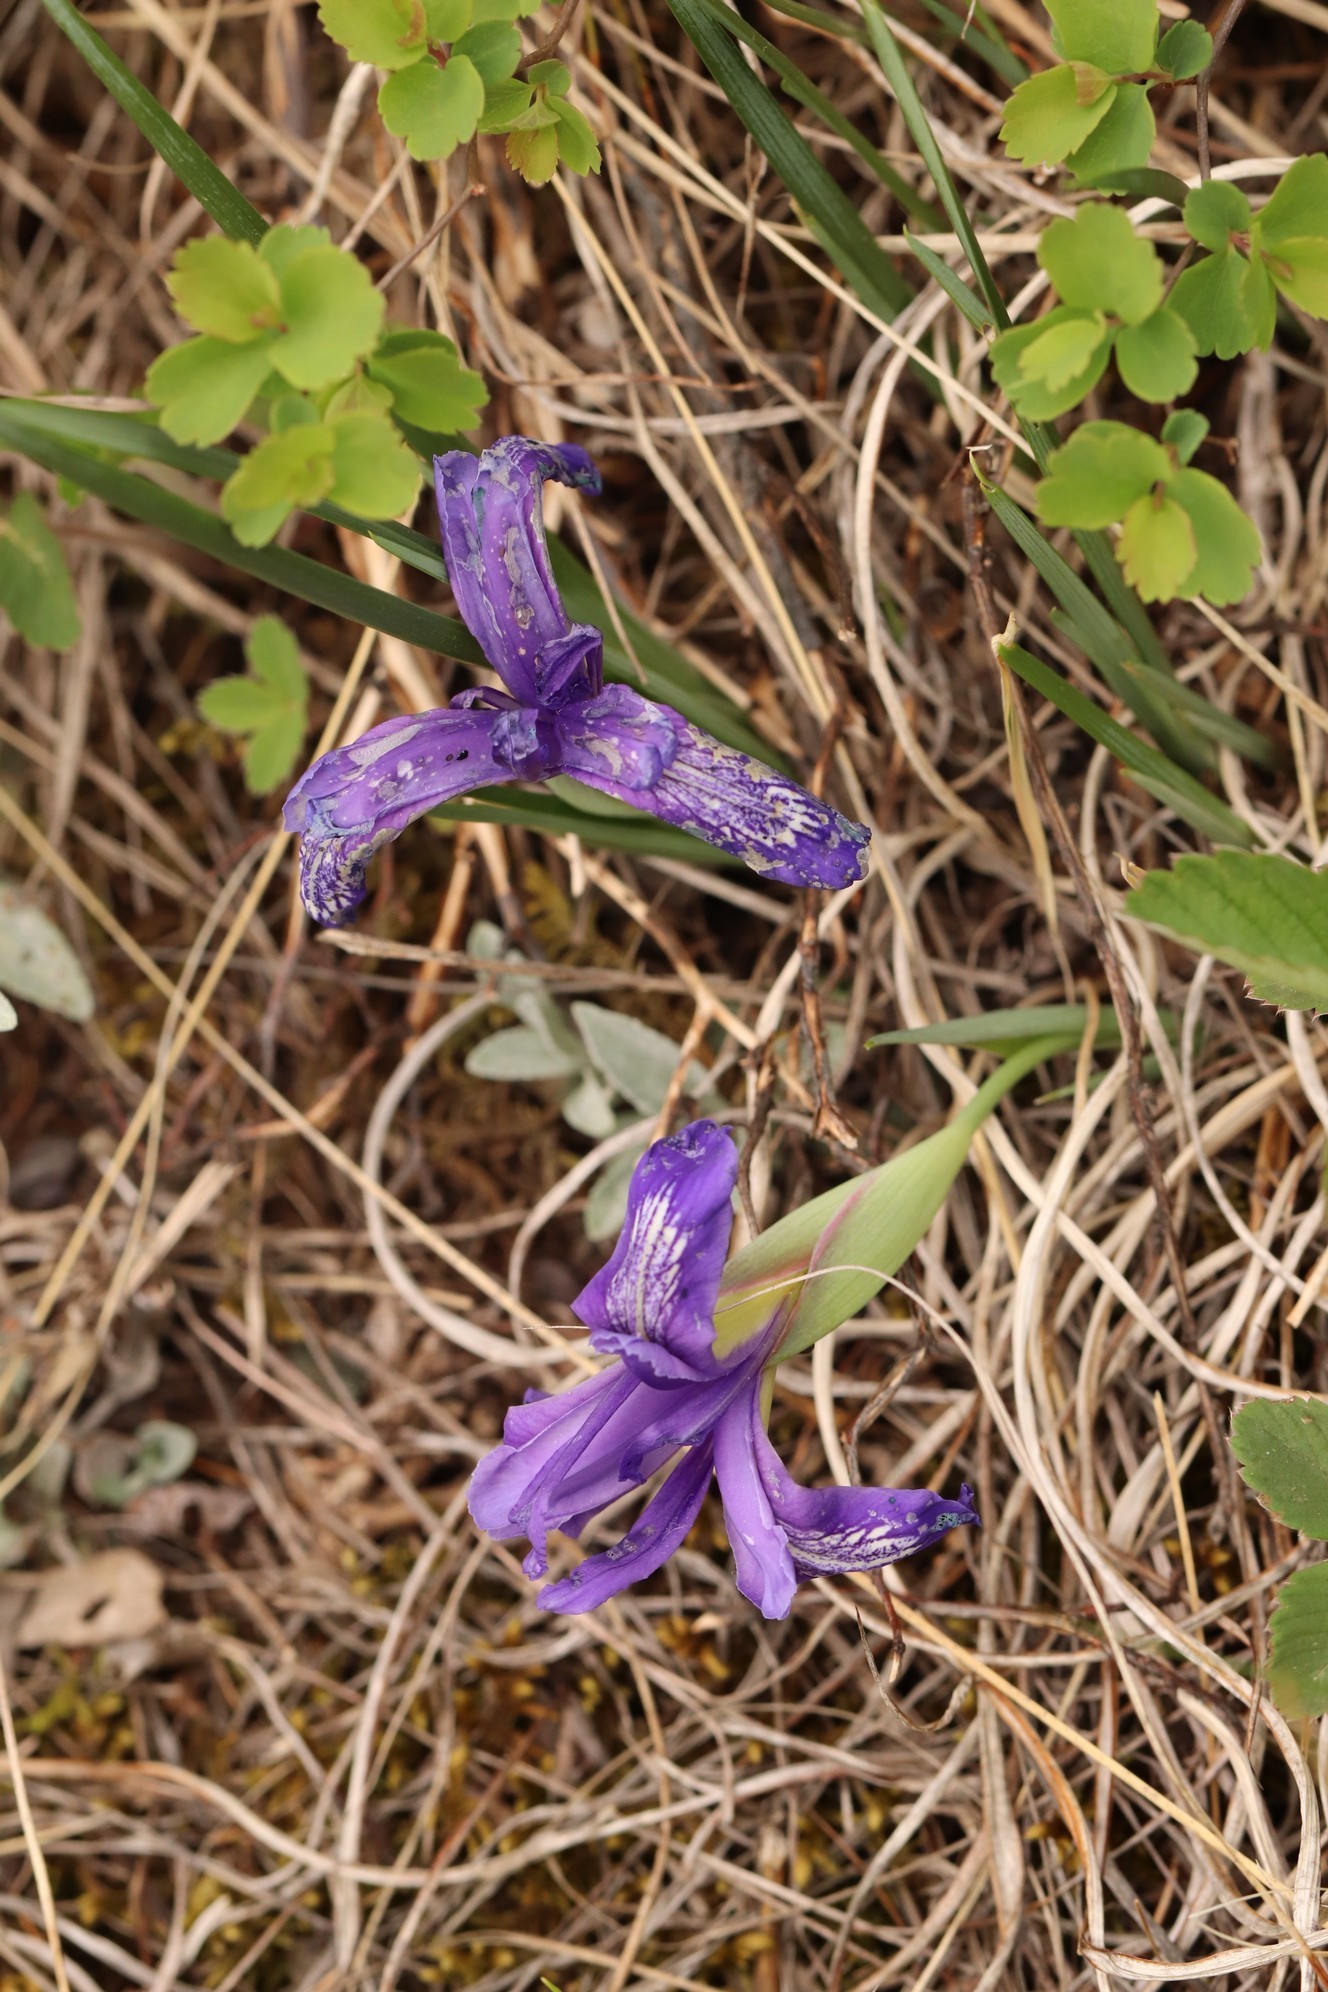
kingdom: Plantae
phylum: Tracheophyta
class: Liliopsida
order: Asparagales
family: Iridaceae
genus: Iris
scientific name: Iris ruthenica
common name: Purple-bract iris
